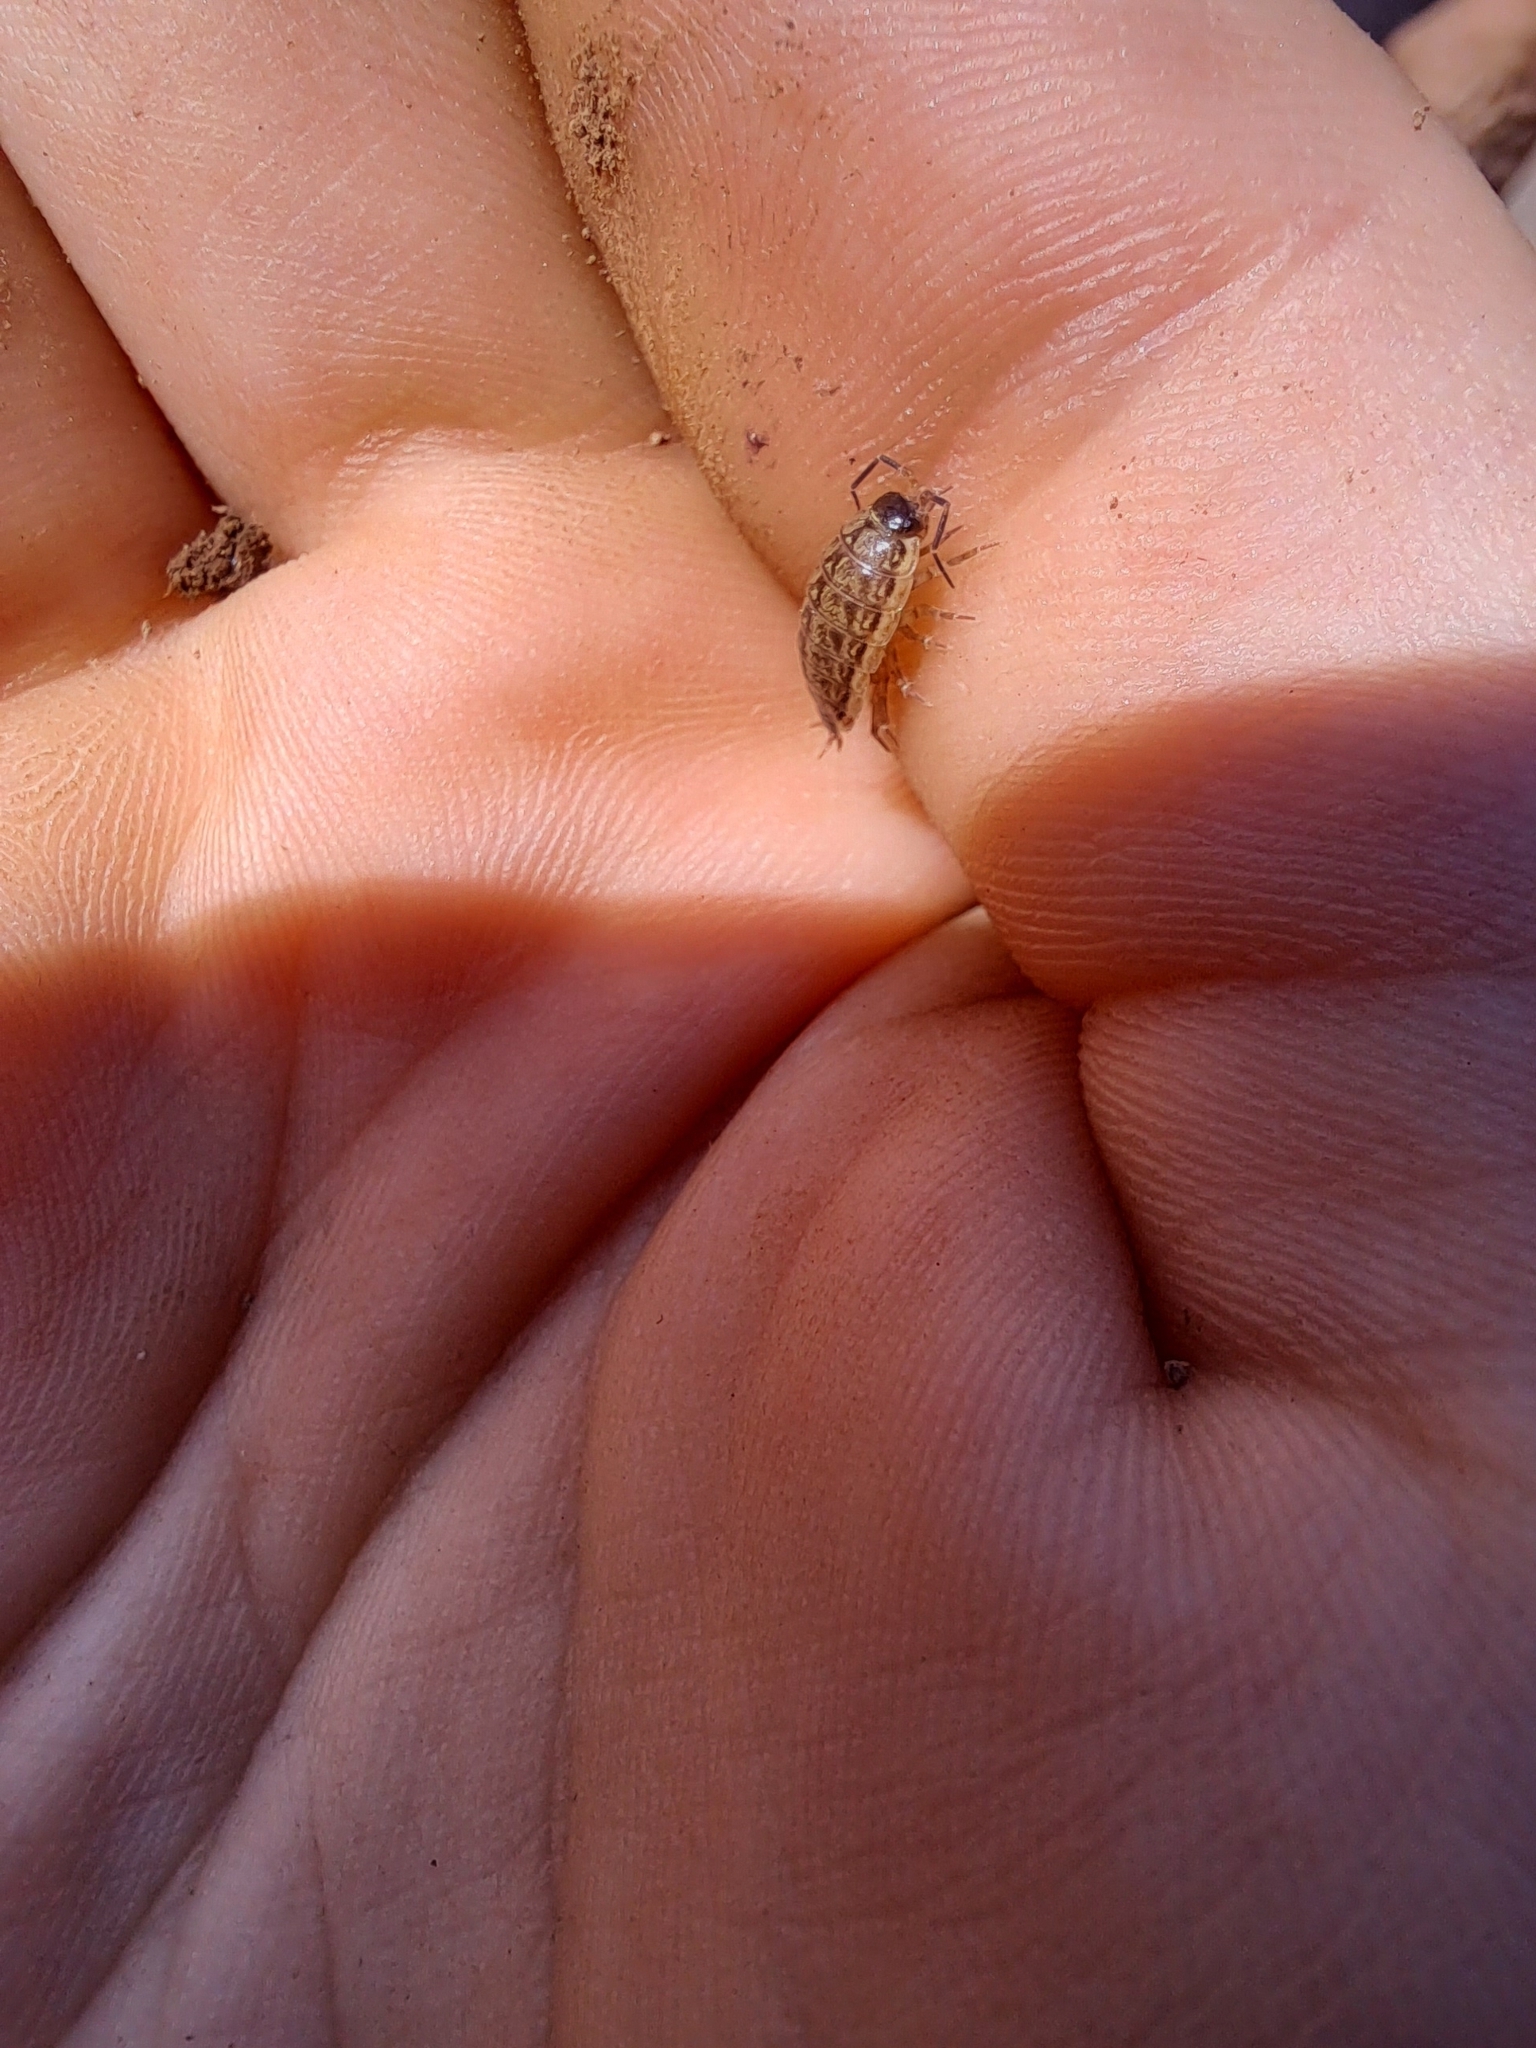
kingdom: Animalia
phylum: Arthropoda
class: Malacostraca
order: Isopoda
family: Philosciidae
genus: Philoscia
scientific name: Philoscia muscorum
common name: Common striped woodlouse
